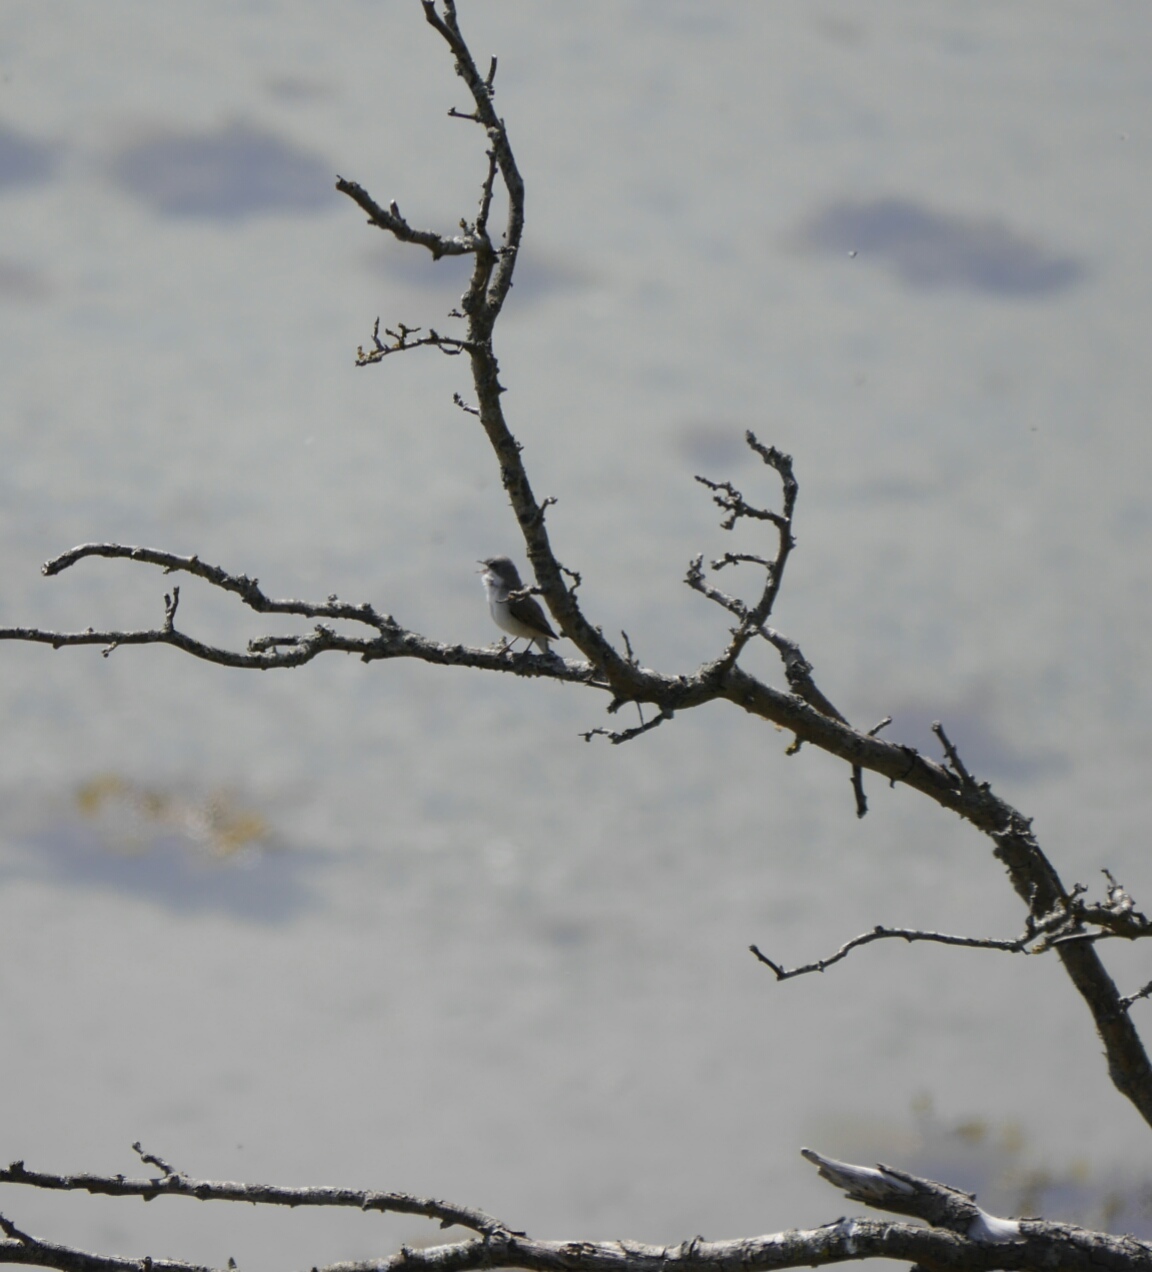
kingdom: Animalia
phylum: Chordata
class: Aves
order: Passeriformes
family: Sylviidae
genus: Sylvia
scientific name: Sylvia curruca
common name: Lesser whitethroat
